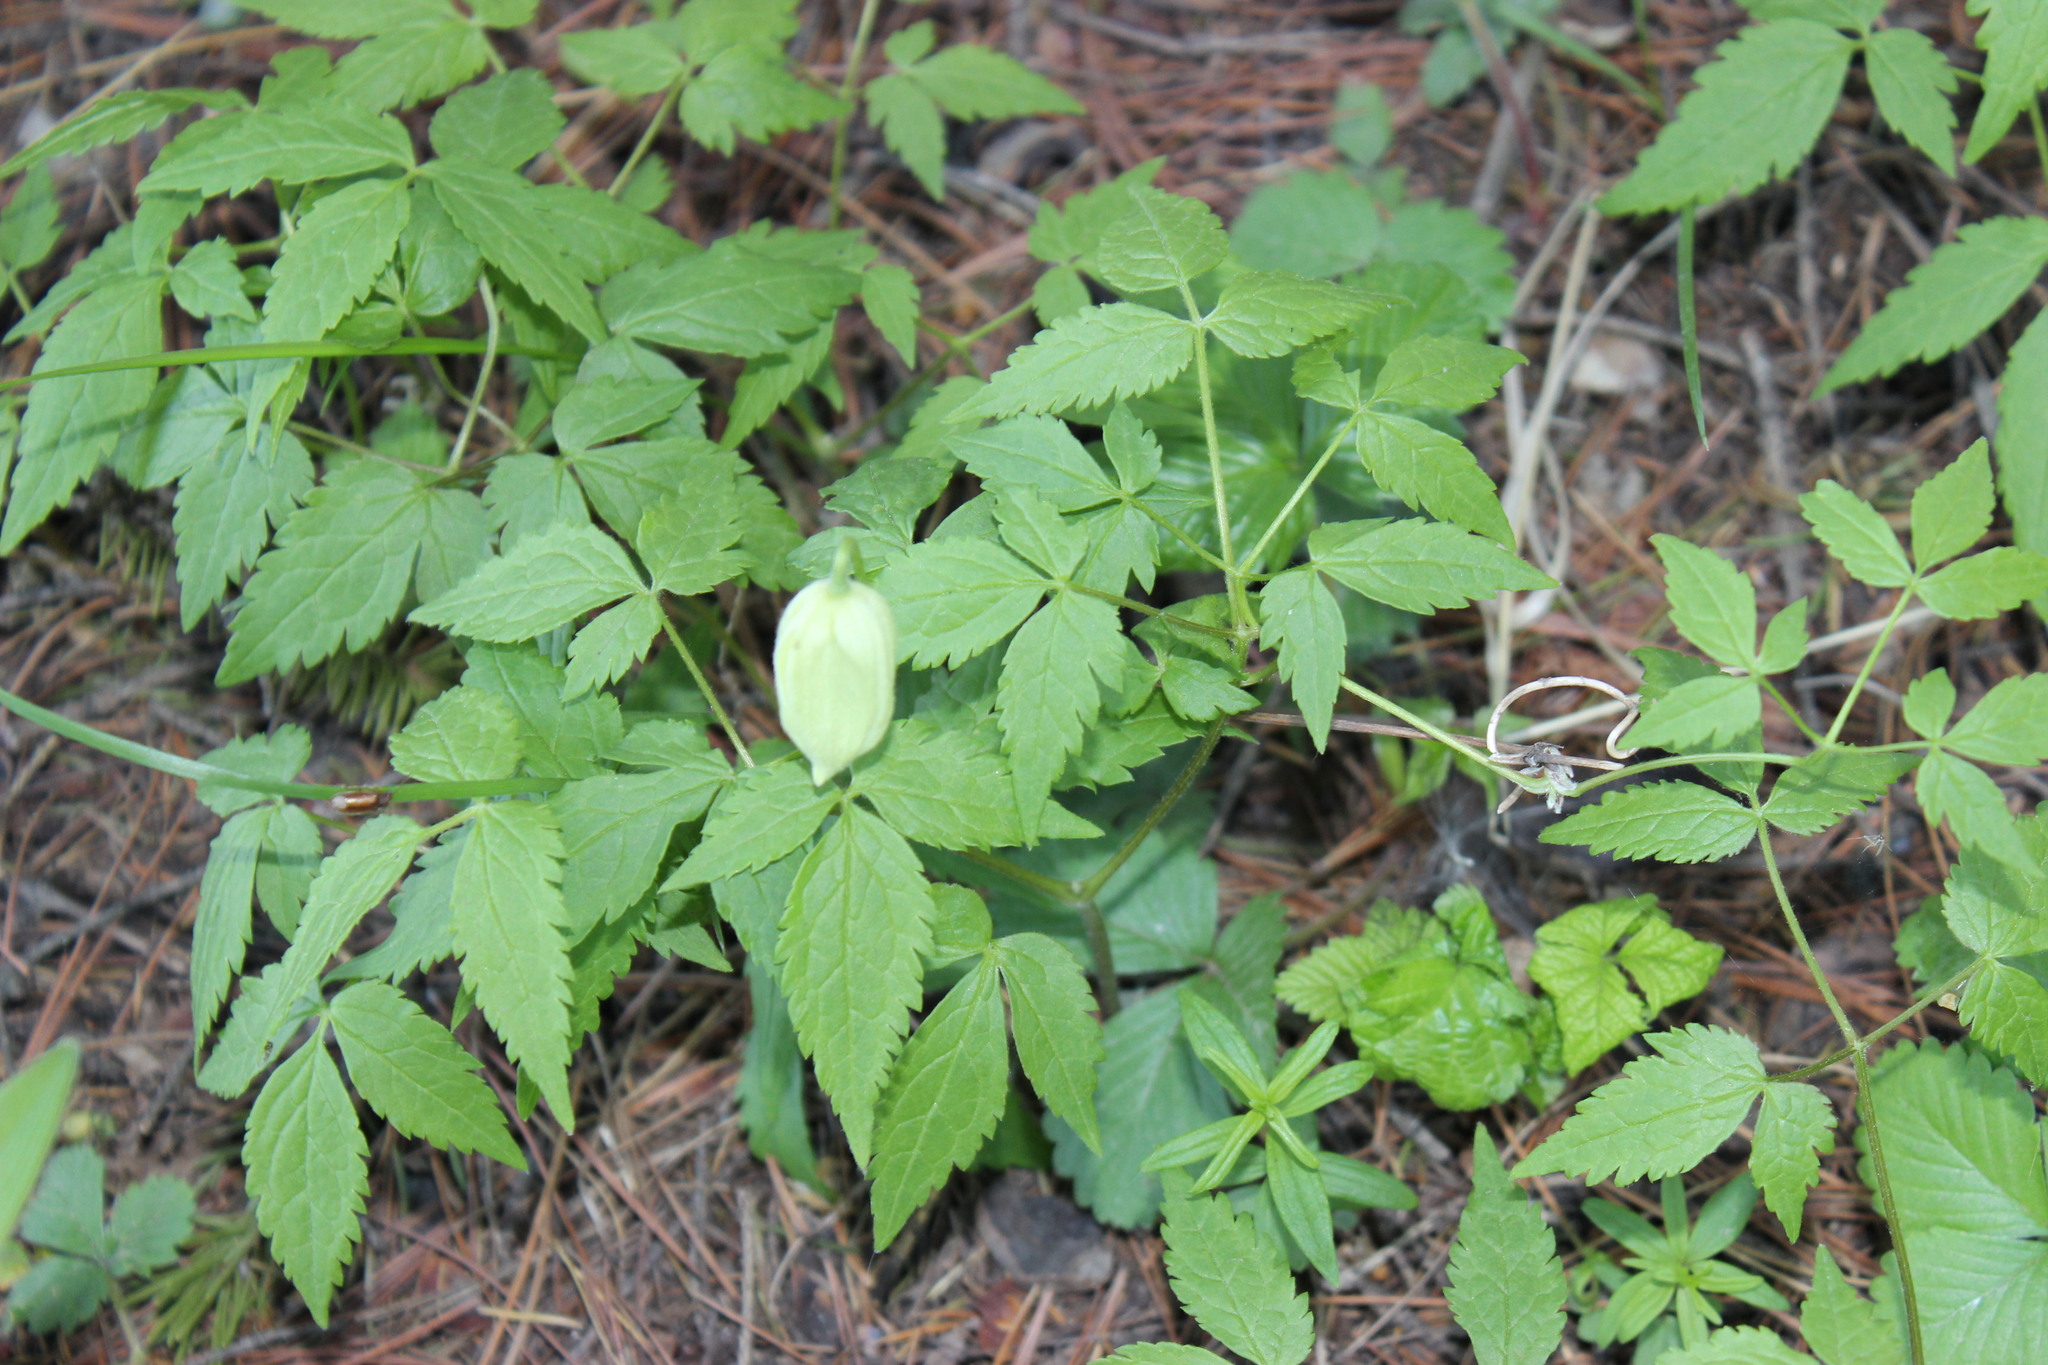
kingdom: Plantae
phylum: Tracheophyta
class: Magnoliopsida
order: Ranunculales
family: Ranunculaceae
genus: Clematis
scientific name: Clematis sibirica
